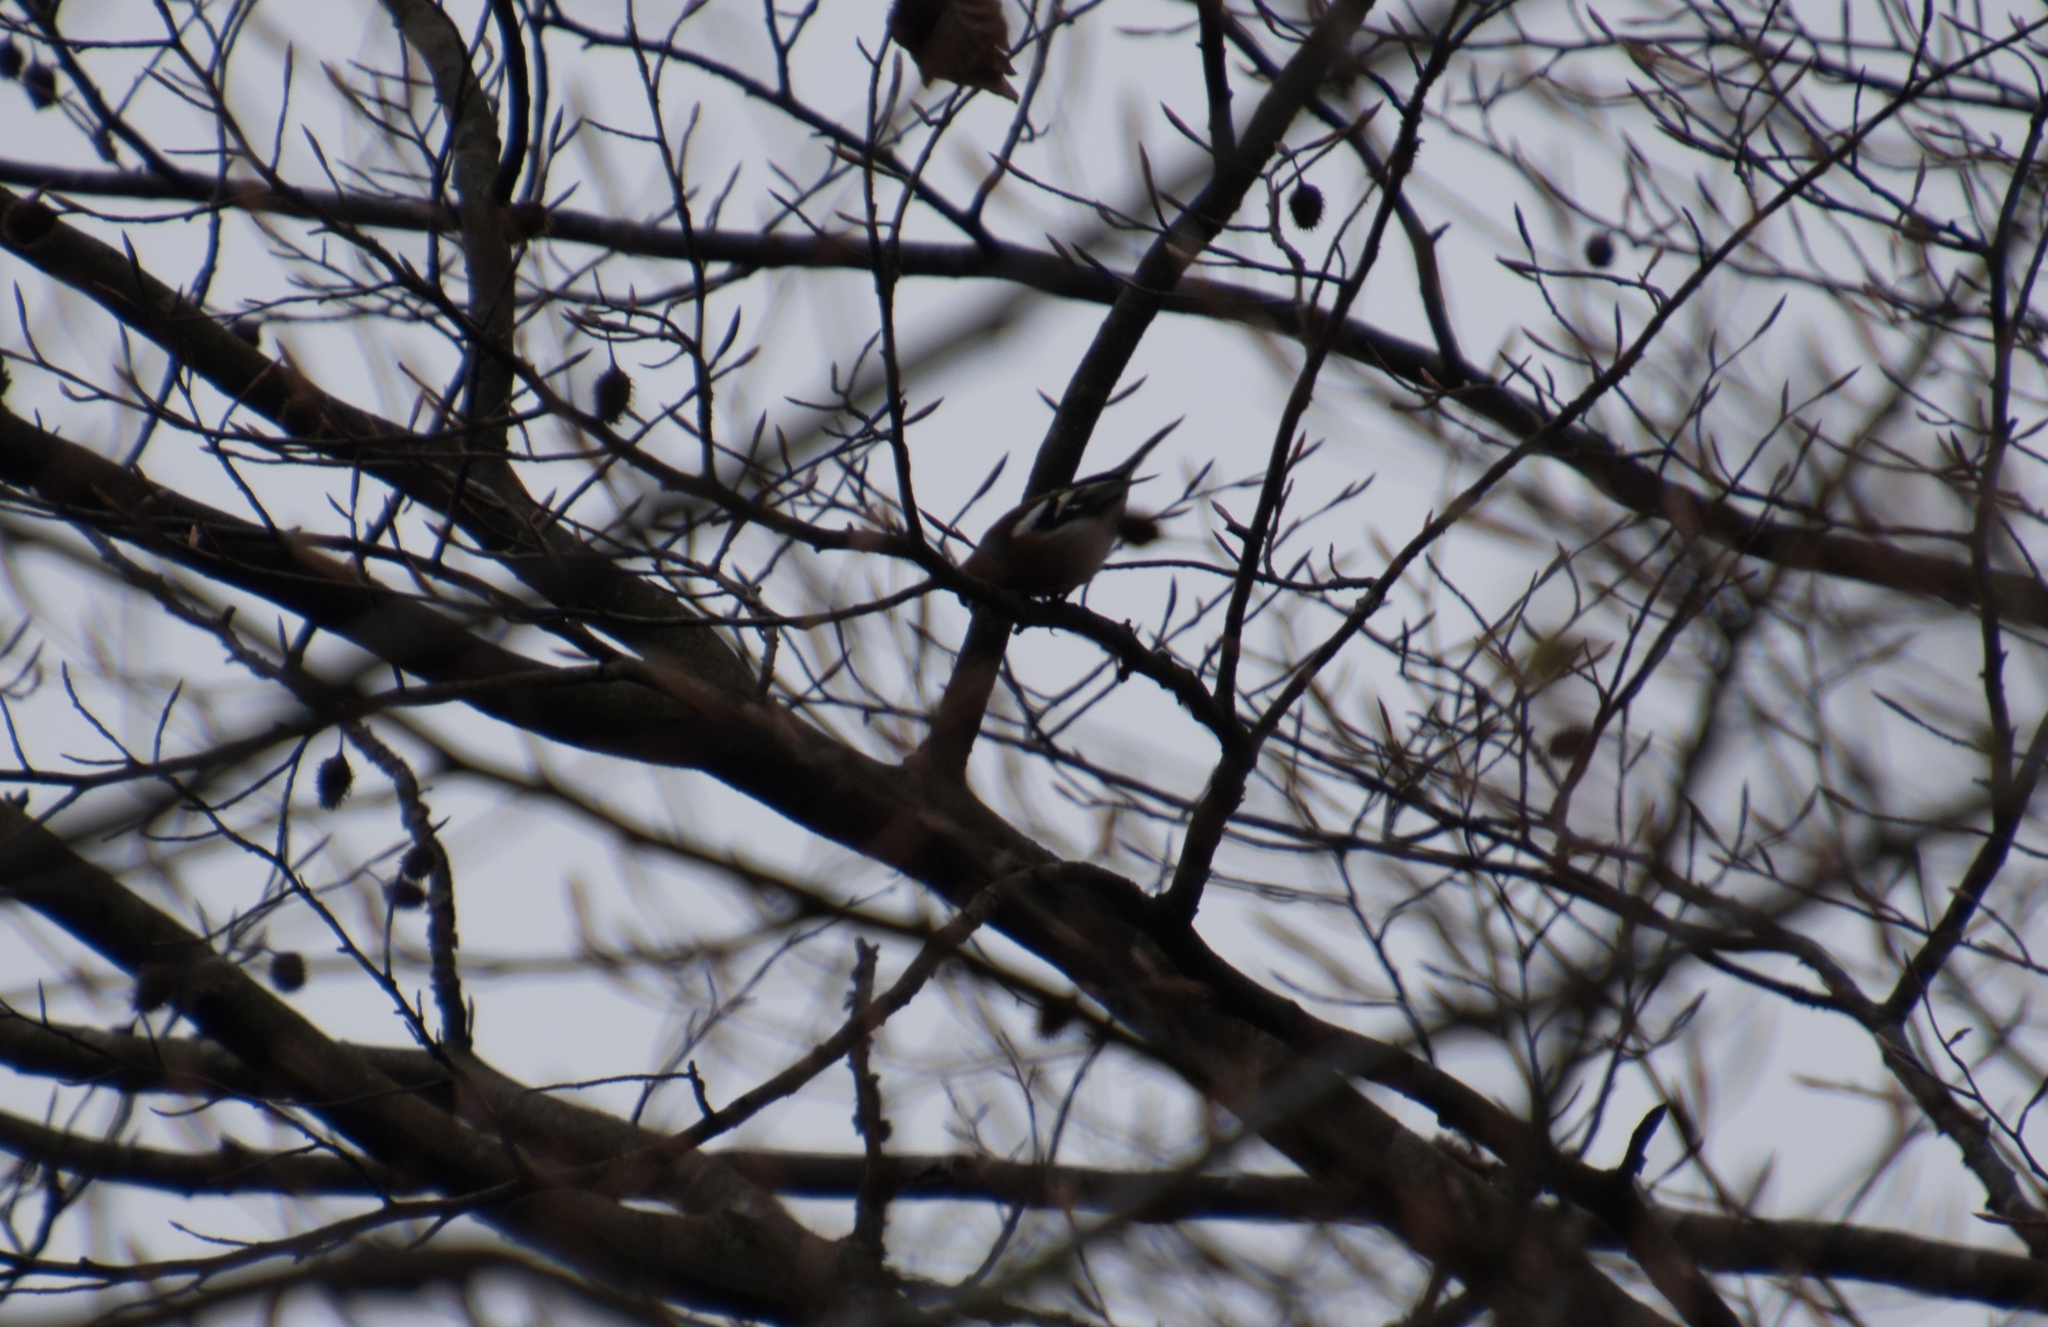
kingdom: Animalia
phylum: Chordata
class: Aves
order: Passeriformes
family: Fringillidae
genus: Fringilla
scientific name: Fringilla coelebs
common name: Common chaffinch
